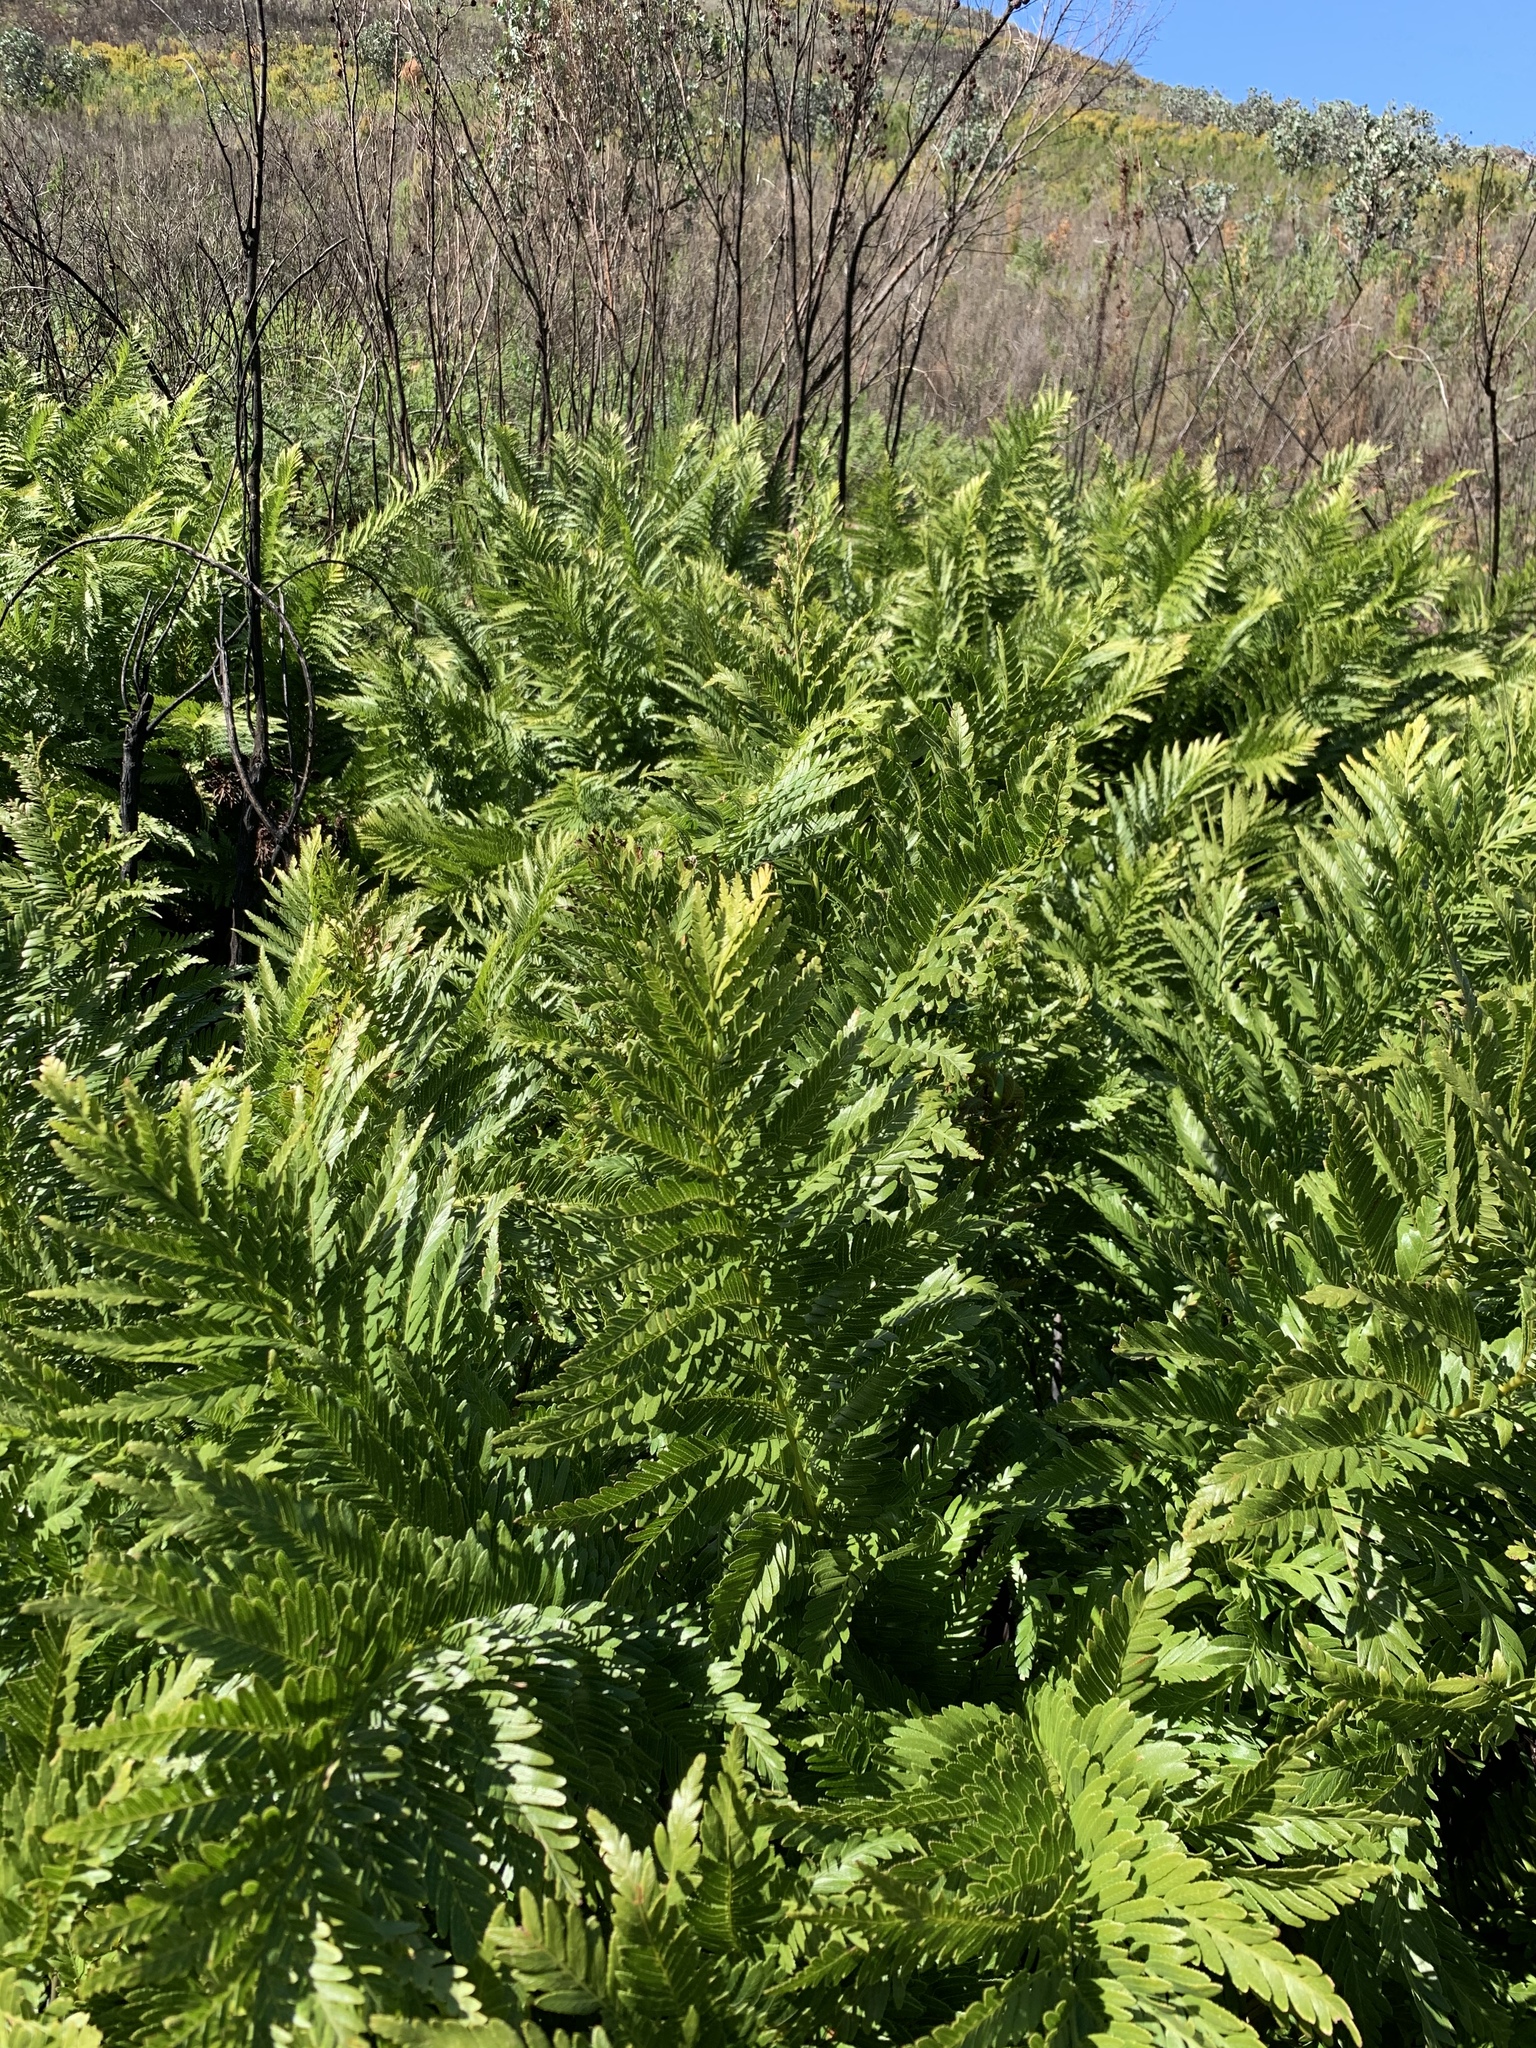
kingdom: Plantae
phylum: Tracheophyta
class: Polypodiopsida
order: Osmundales
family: Osmundaceae
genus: Todea
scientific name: Todea barbara
